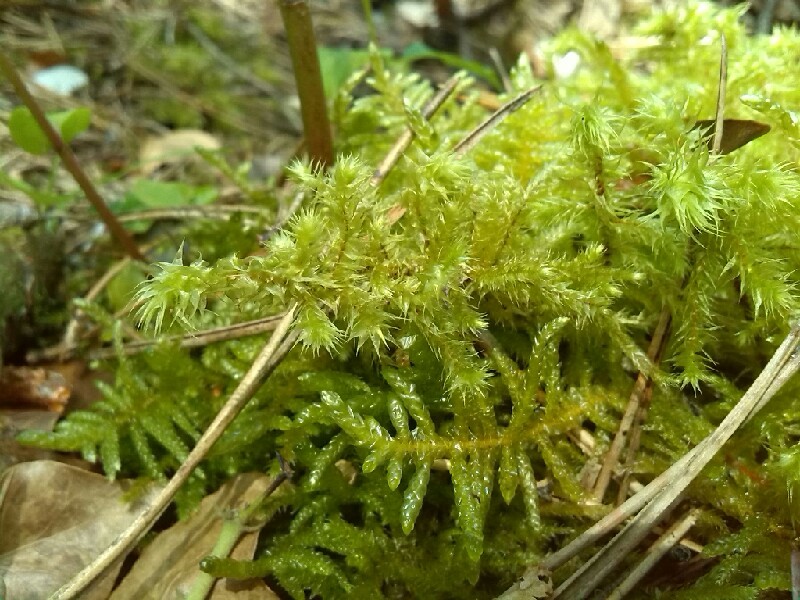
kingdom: Plantae
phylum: Bryophyta
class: Bryopsida
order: Hypnales
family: Hylocomiaceae
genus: Hylocomiadelphus
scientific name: Hylocomiadelphus triquetrus
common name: Rough goose neck moss
